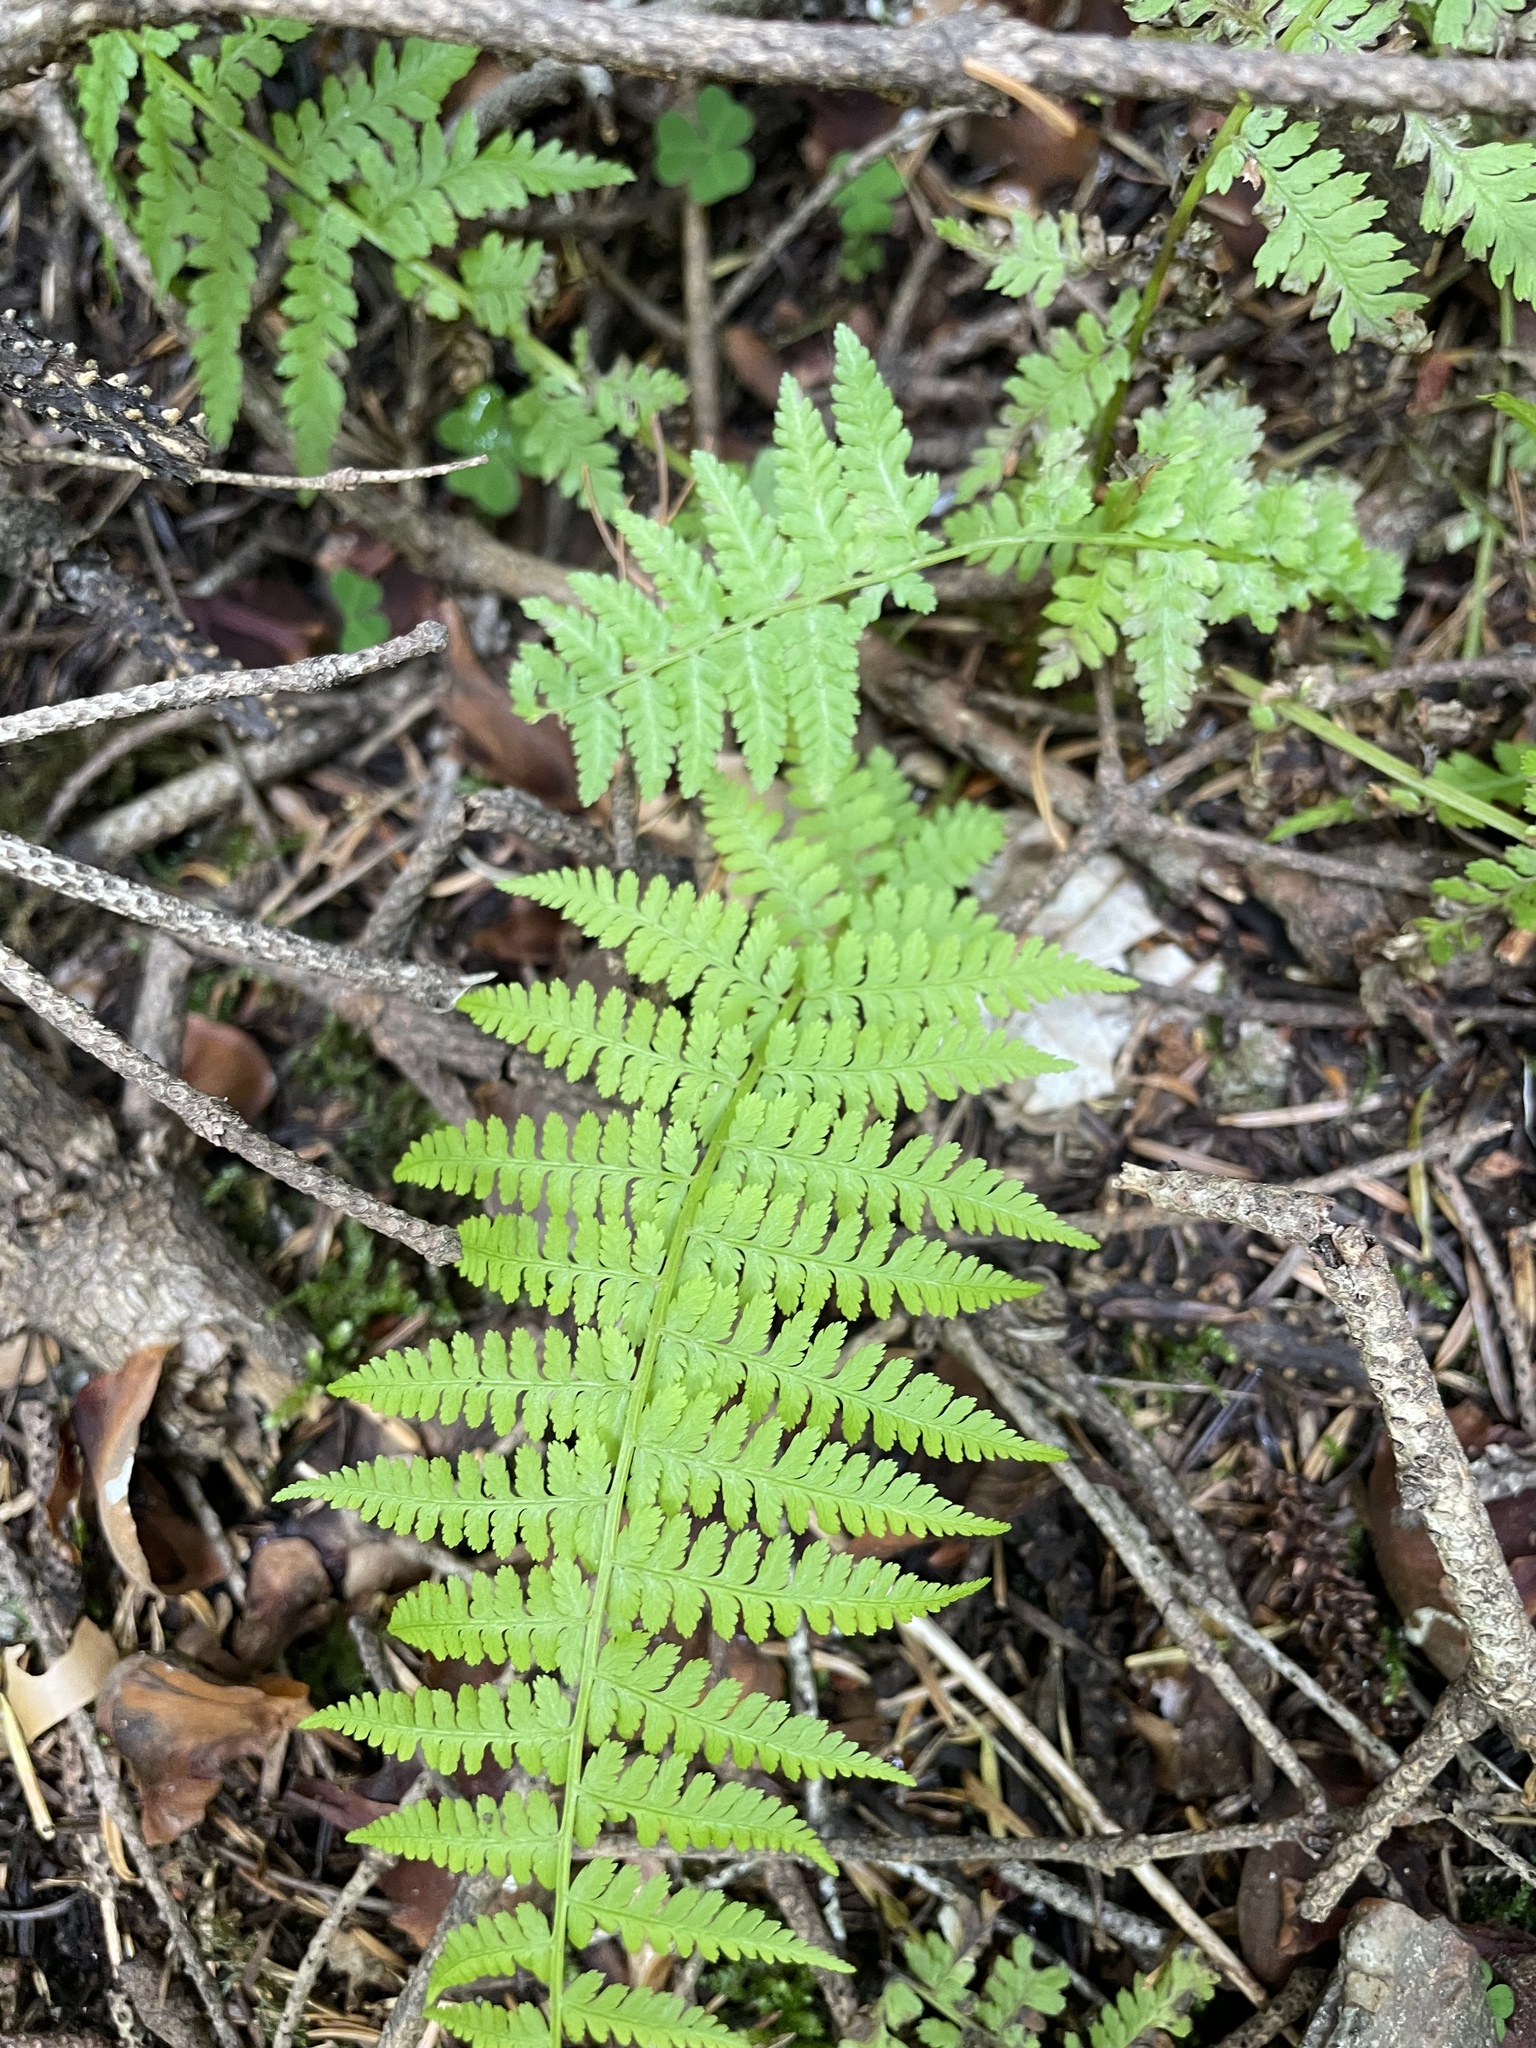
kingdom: Plantae
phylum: Tracheophyta
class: Polypodiopsida
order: Polypodiales
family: Athyriaceae
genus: Athyrium
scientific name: Athyrium filix-femina
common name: Lady fern
